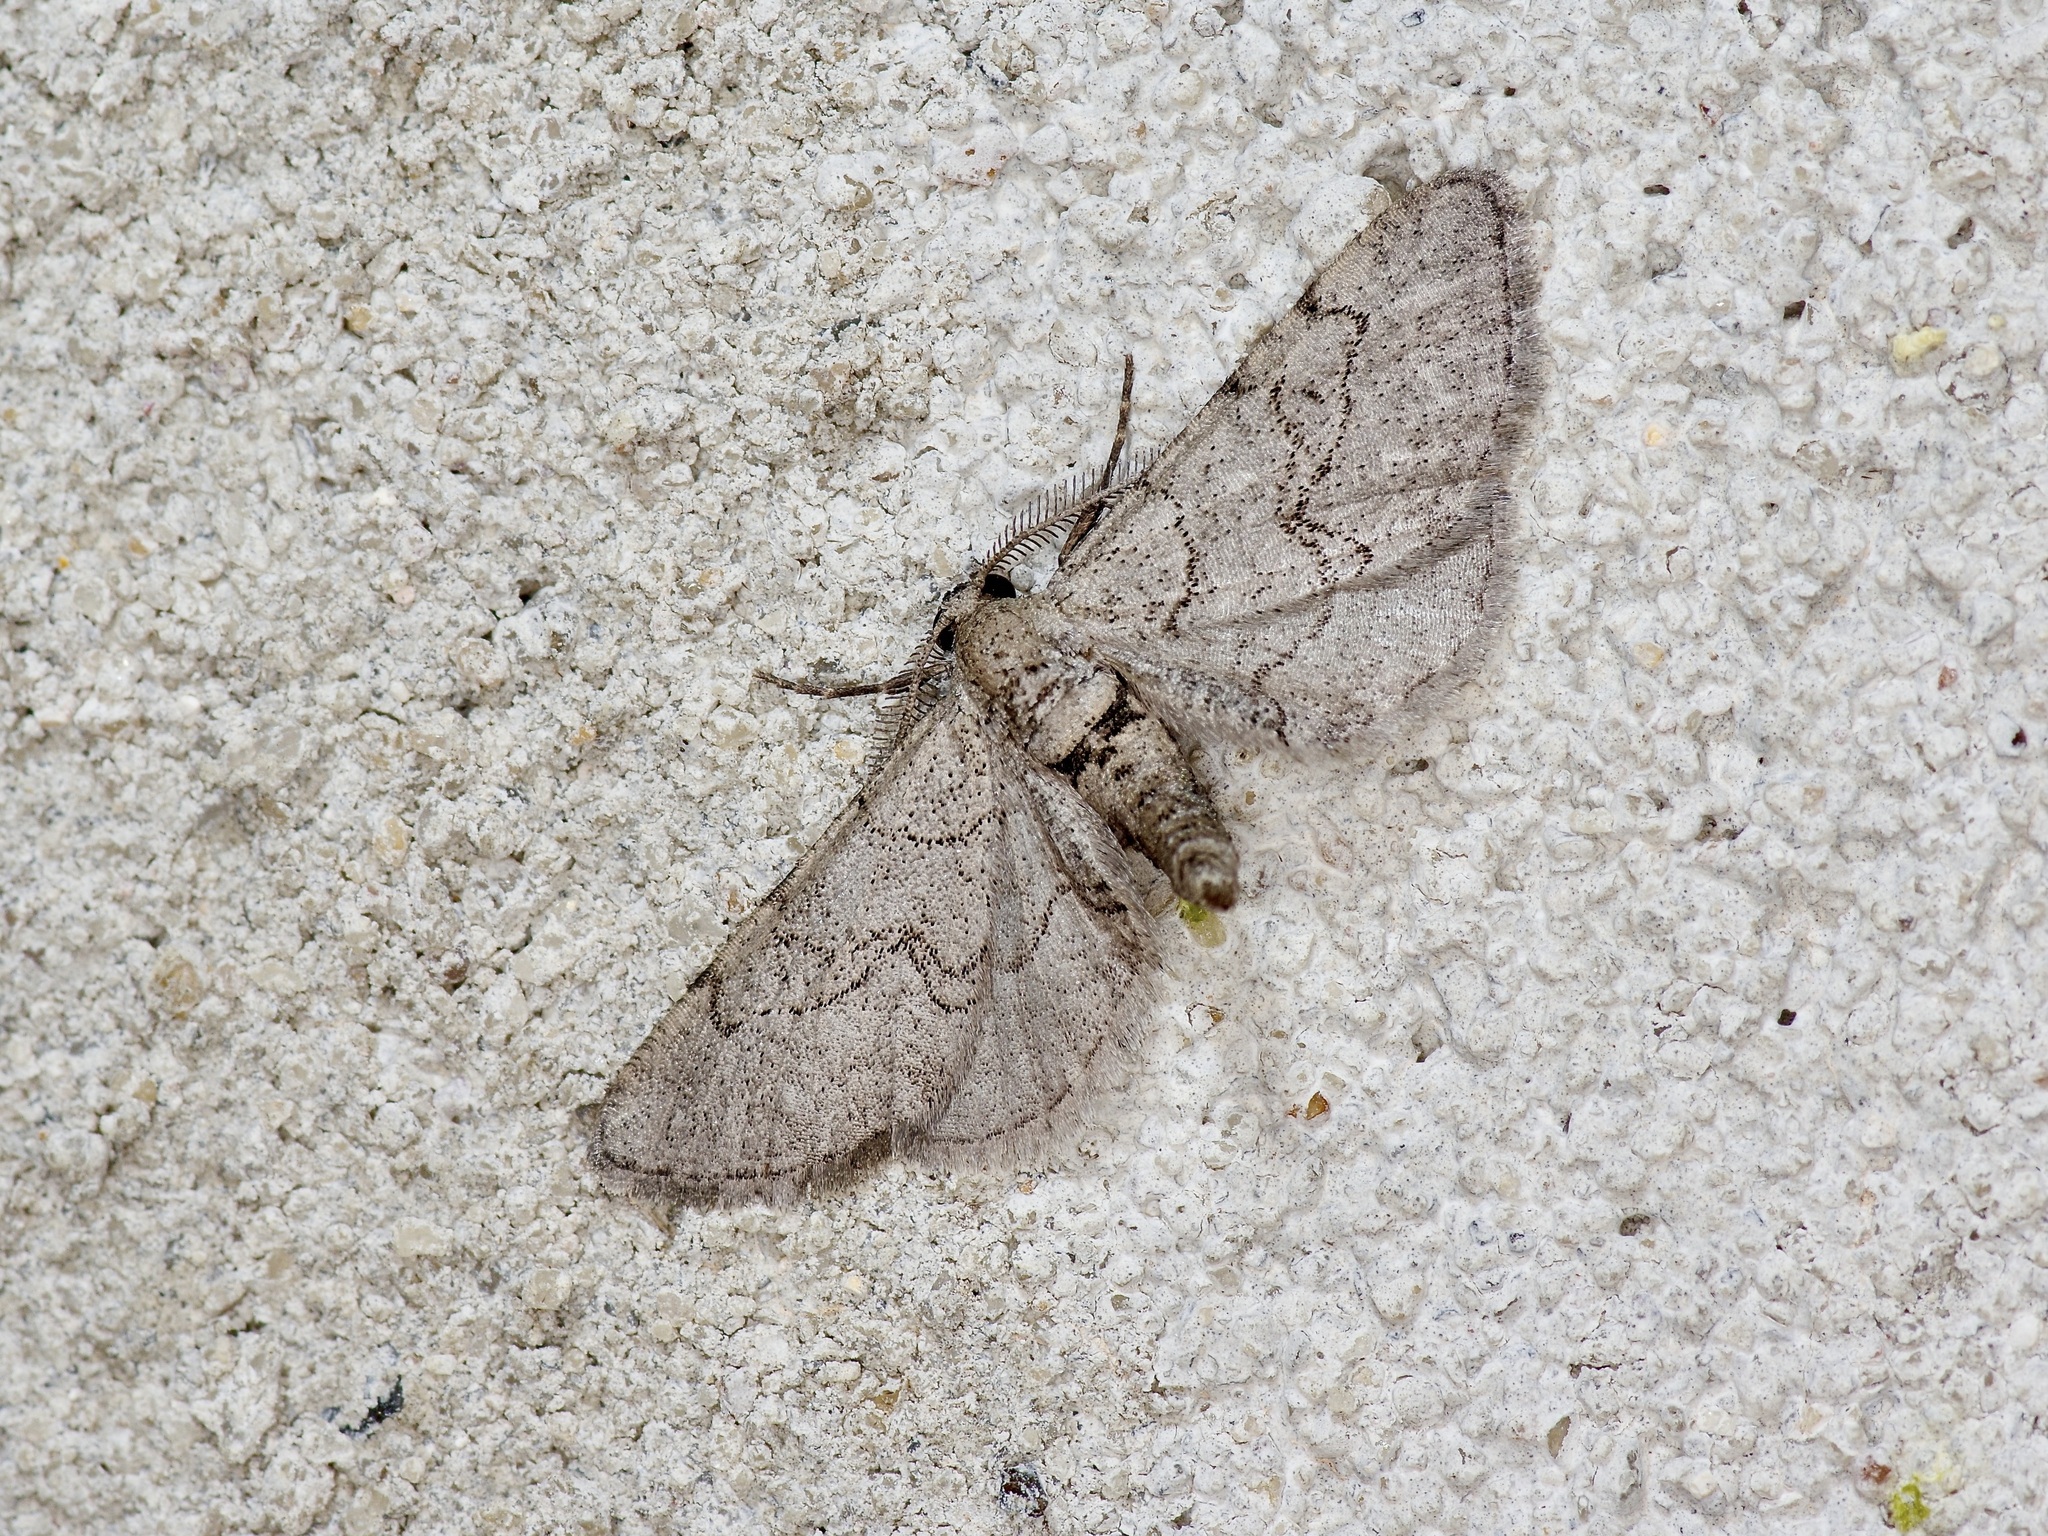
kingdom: Animalia
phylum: Arthropoda
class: Insecta
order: Lepidoptera
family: Geometridae
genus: Exelis
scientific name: Exelis ophiurus
